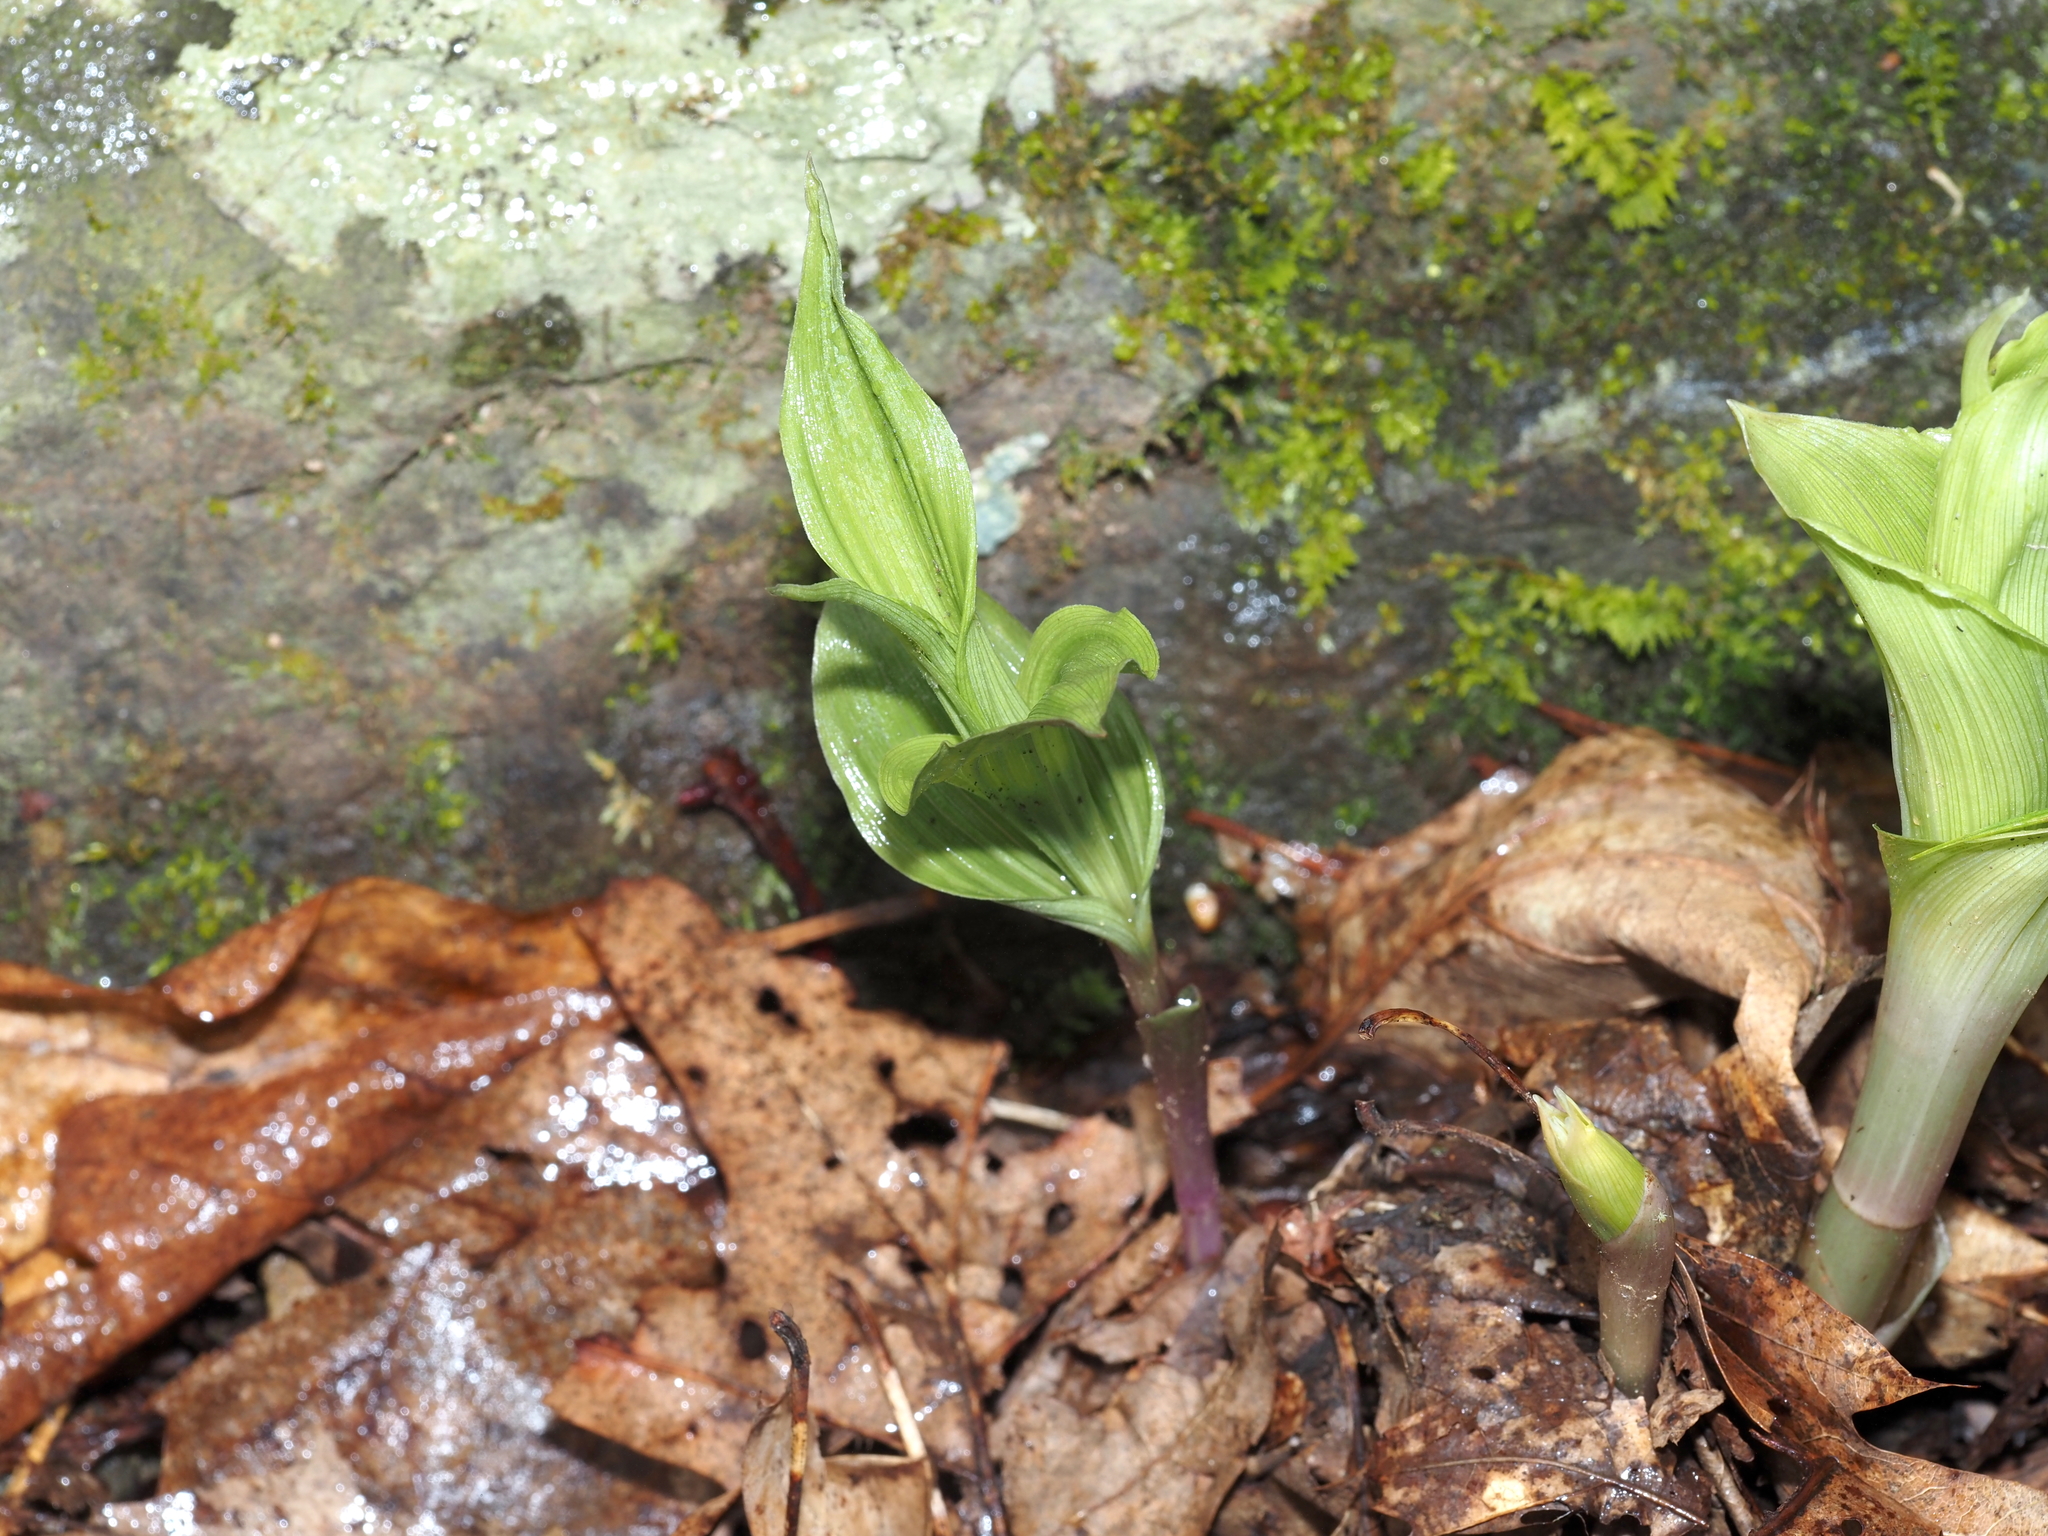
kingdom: Plantae
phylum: Tracheophyta
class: Liliopsida
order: Asparagales
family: Orchidaceae
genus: Epipactis
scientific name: Epipactis helleborine
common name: Broad-leaved helleborine
